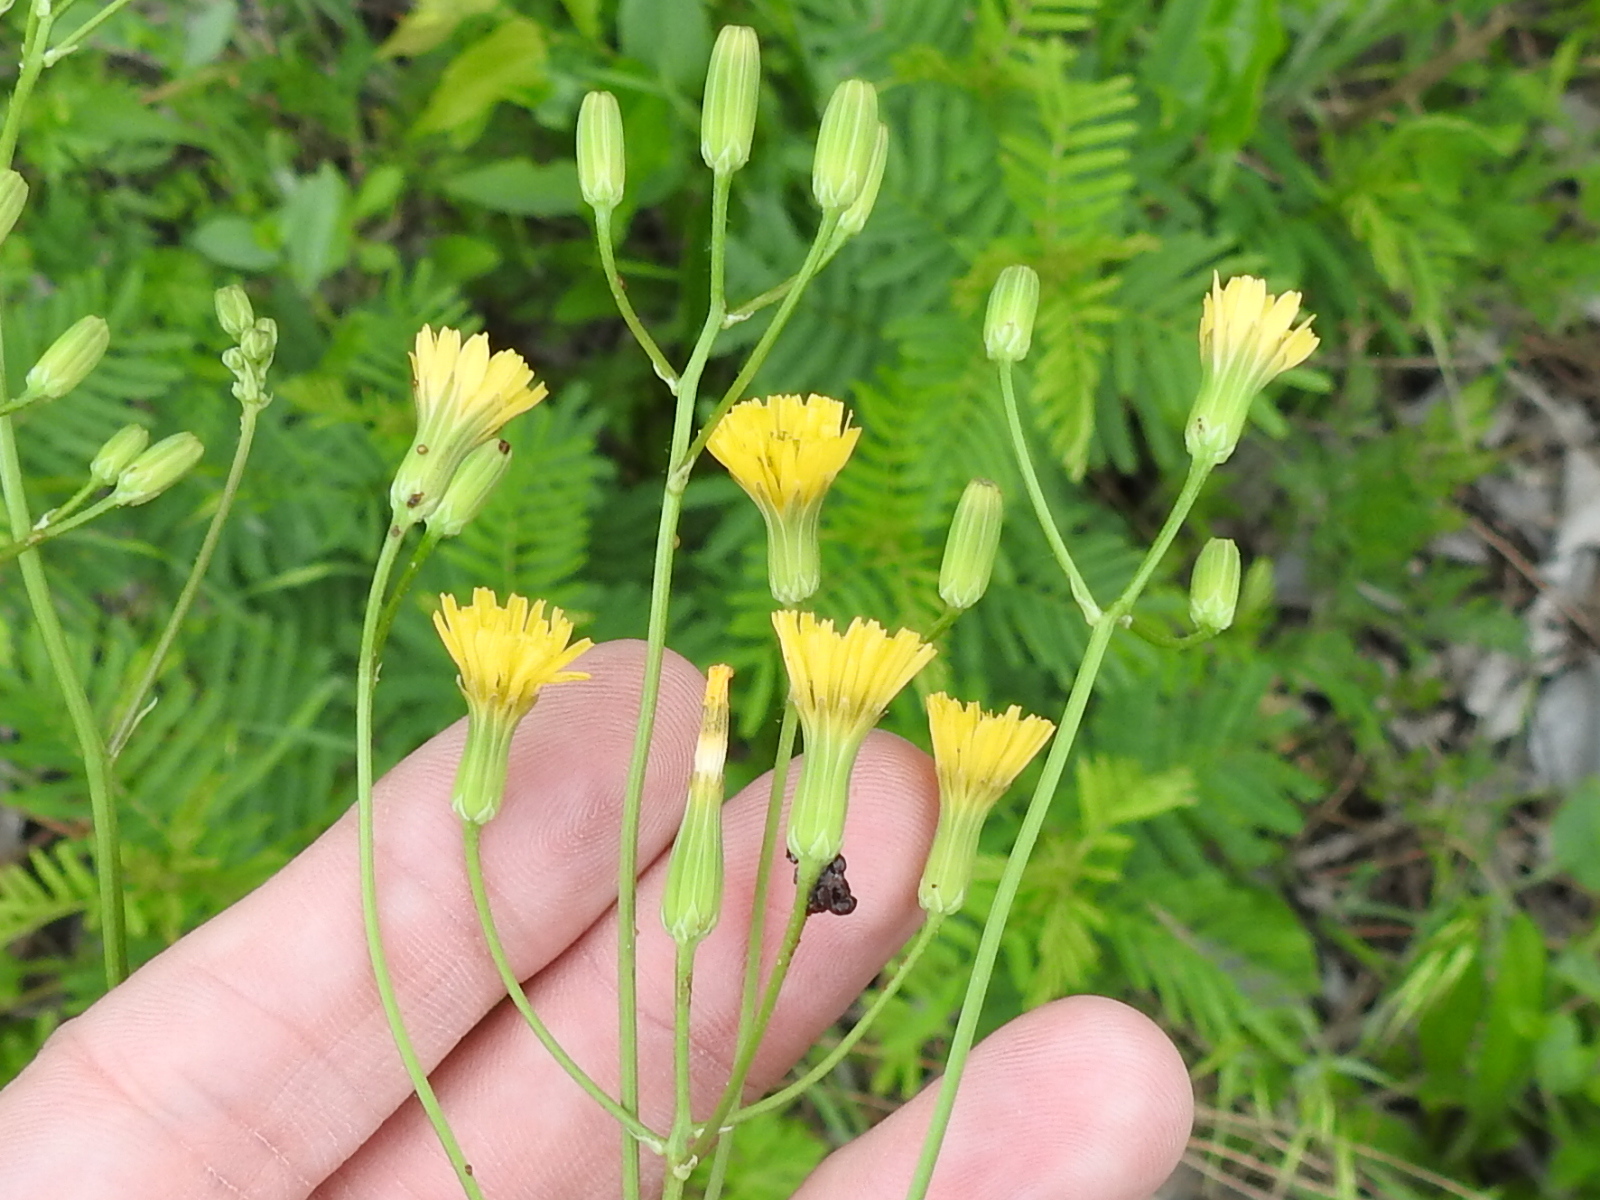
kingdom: Plantae
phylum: Tracheophyta
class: Magnoliopsida
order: Asterales
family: Asteraceae
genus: Crepis
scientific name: Crepis pulchra
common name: Hawk's-beard
